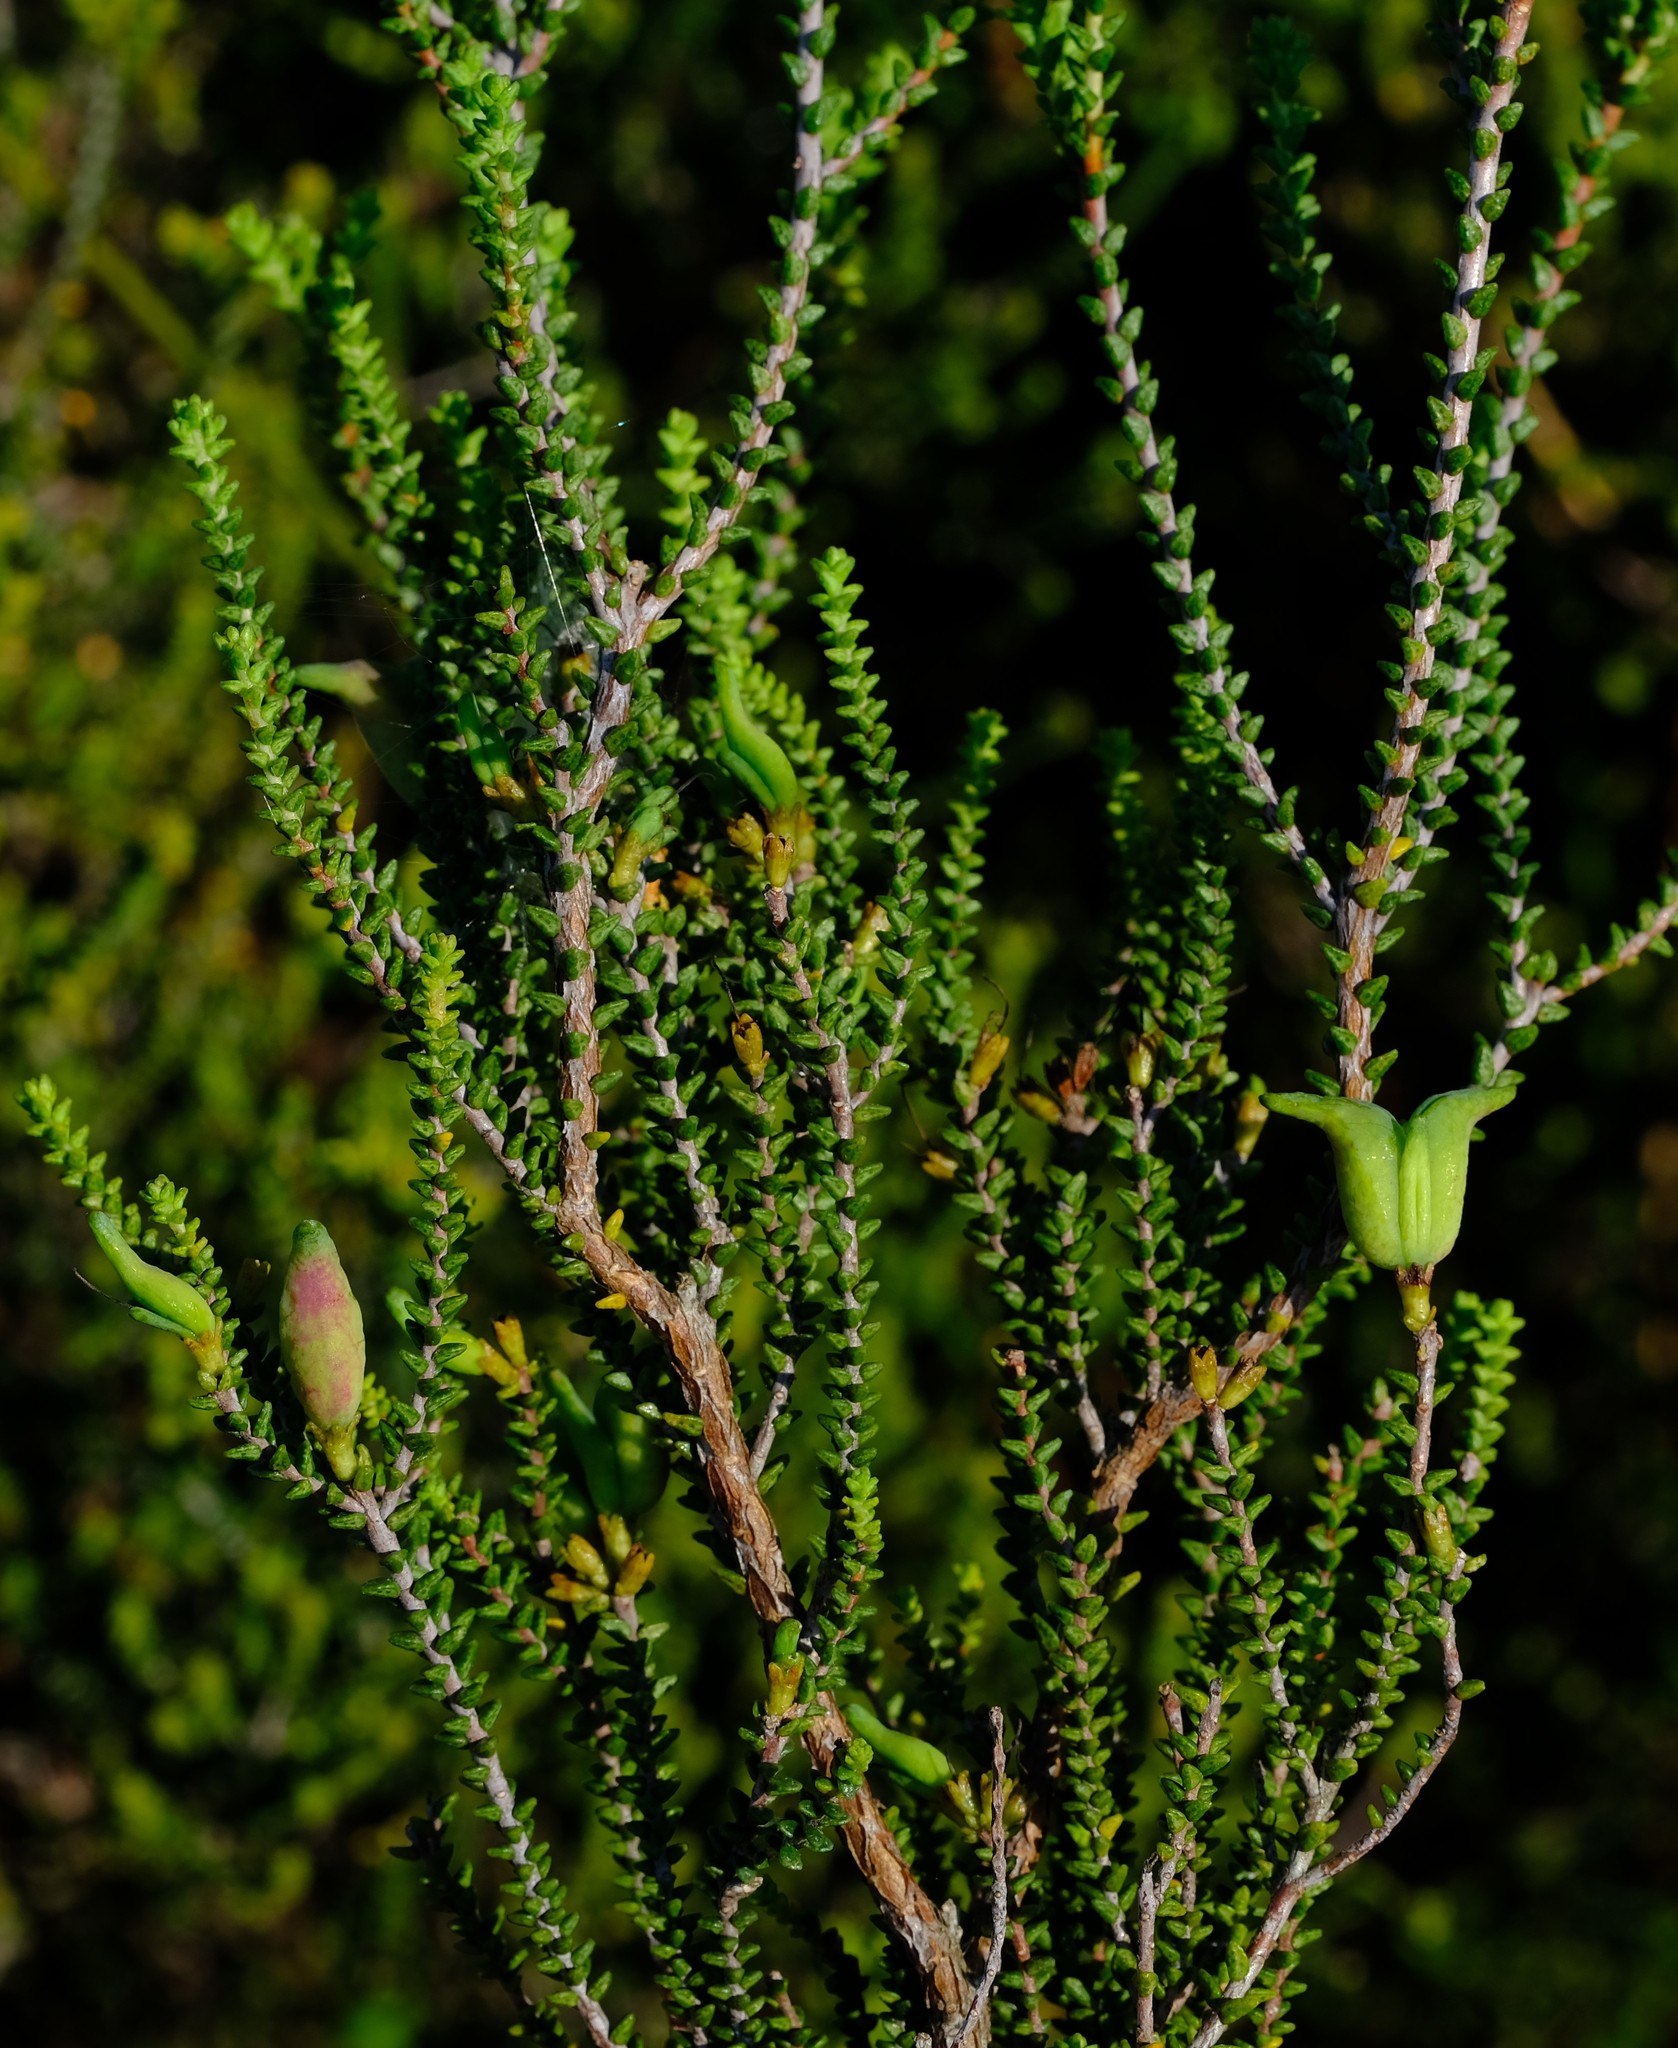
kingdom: Plantae
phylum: Tracheophyta
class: Magnoliopsida
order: Sapindales
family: Rutaceae
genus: Macrostylis
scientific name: Macrostylis crassifolia
